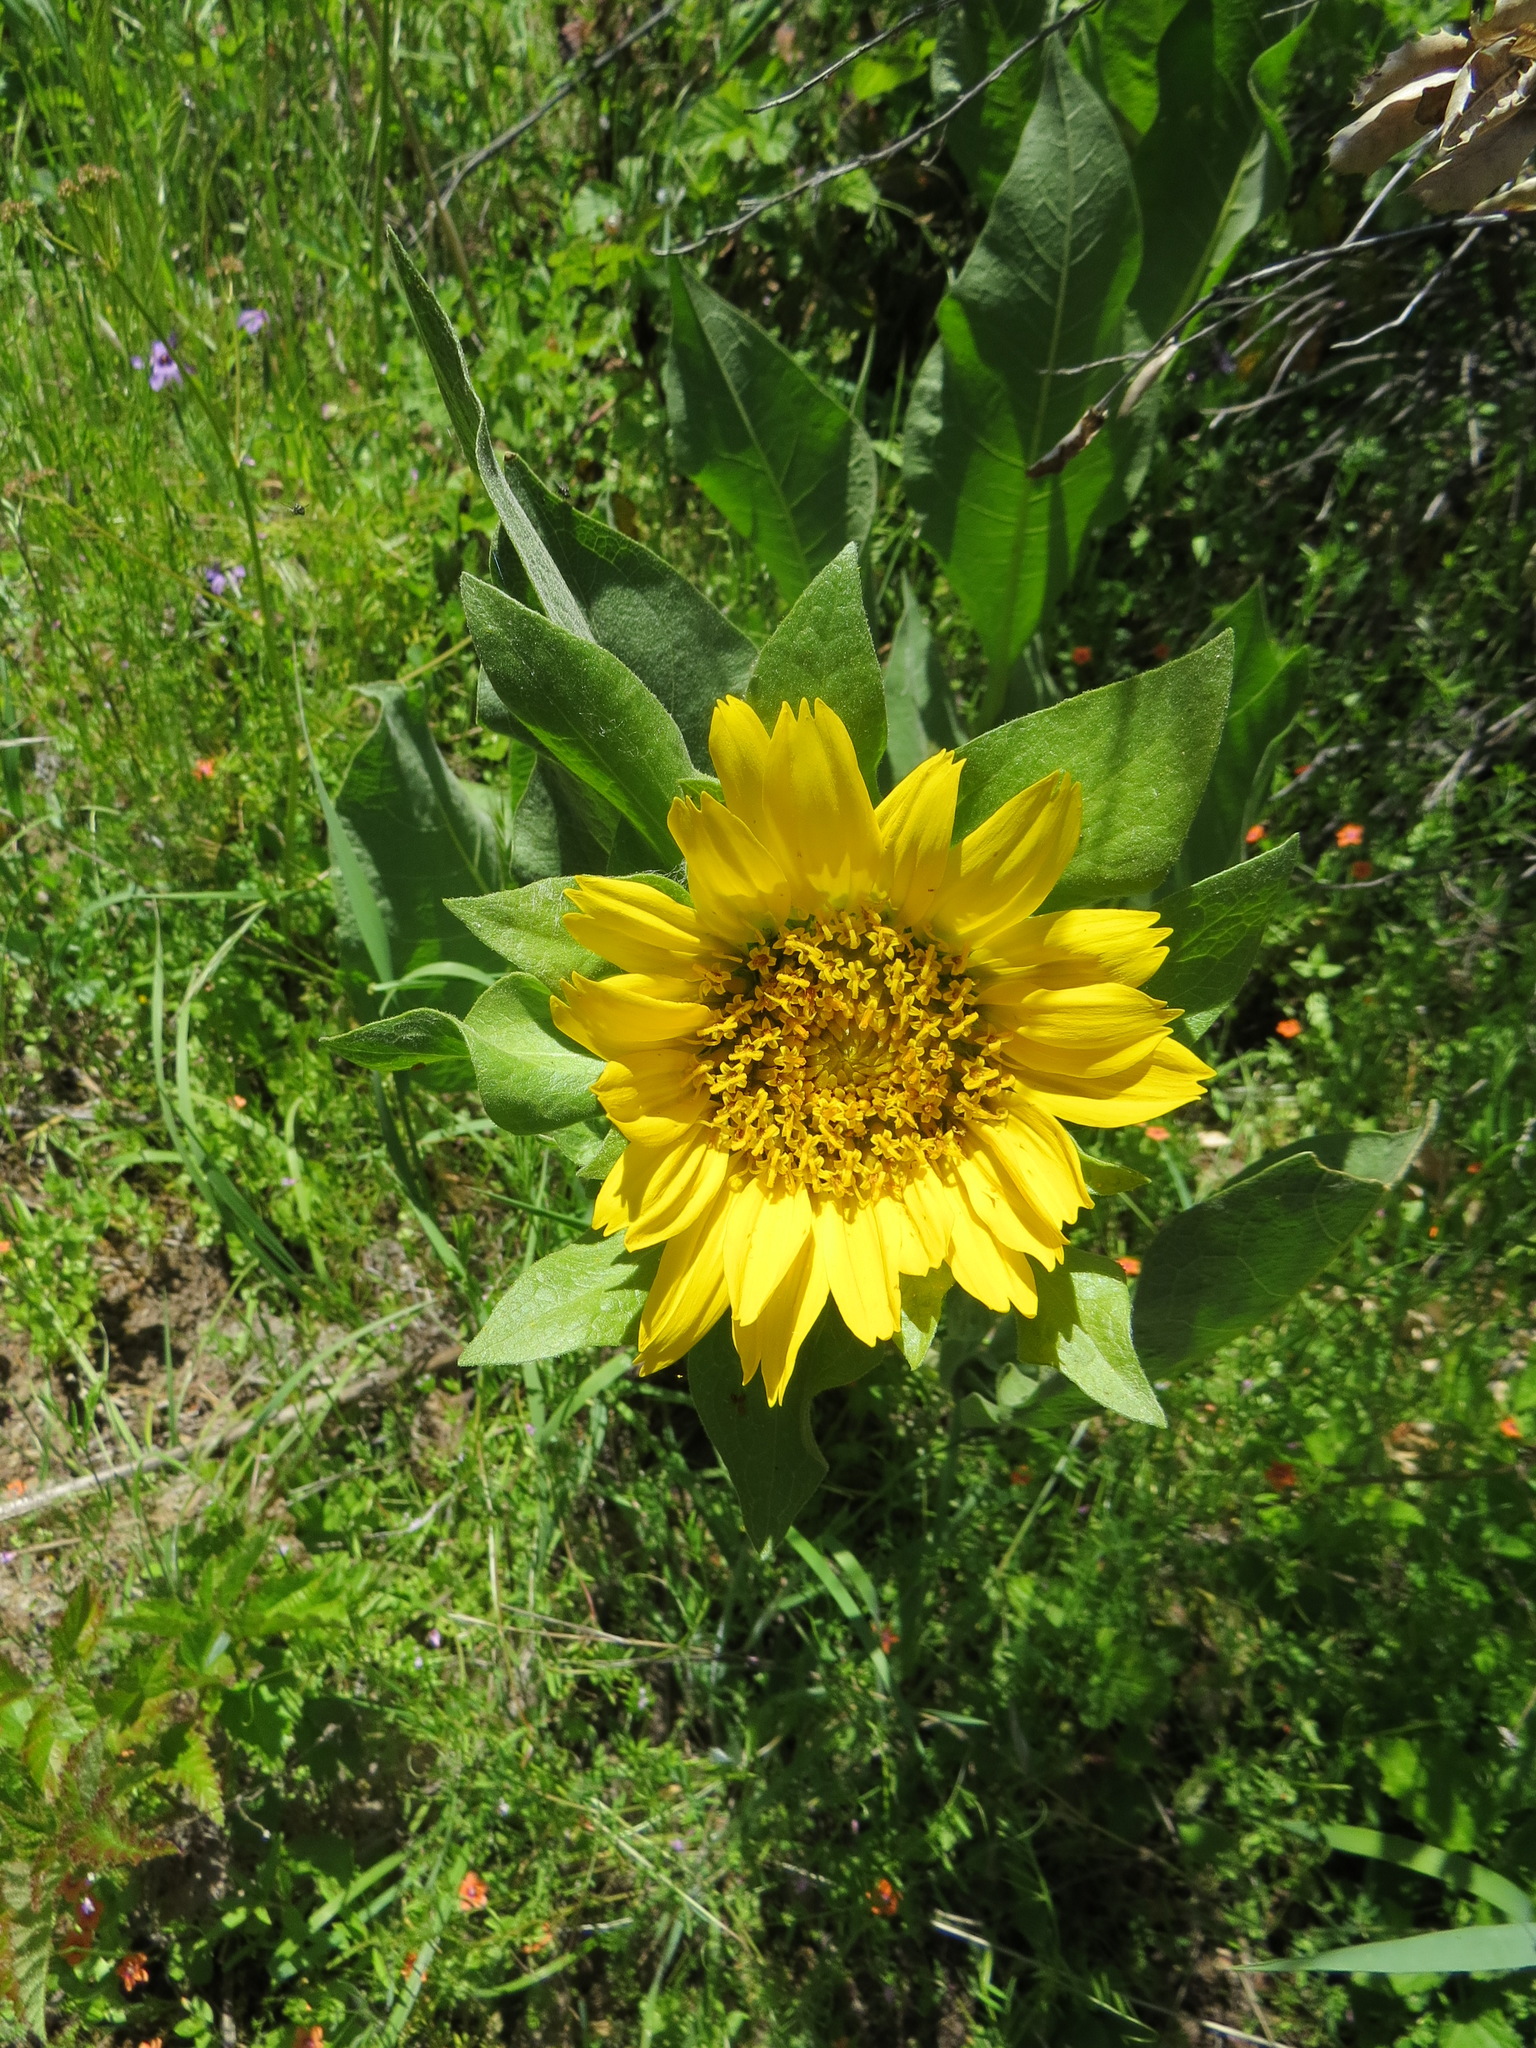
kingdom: Plantae
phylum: Tracheophyta
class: Magnoliopsida
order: Asterales
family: Asteraceae
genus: Wyethia
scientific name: Wyethia glabra
